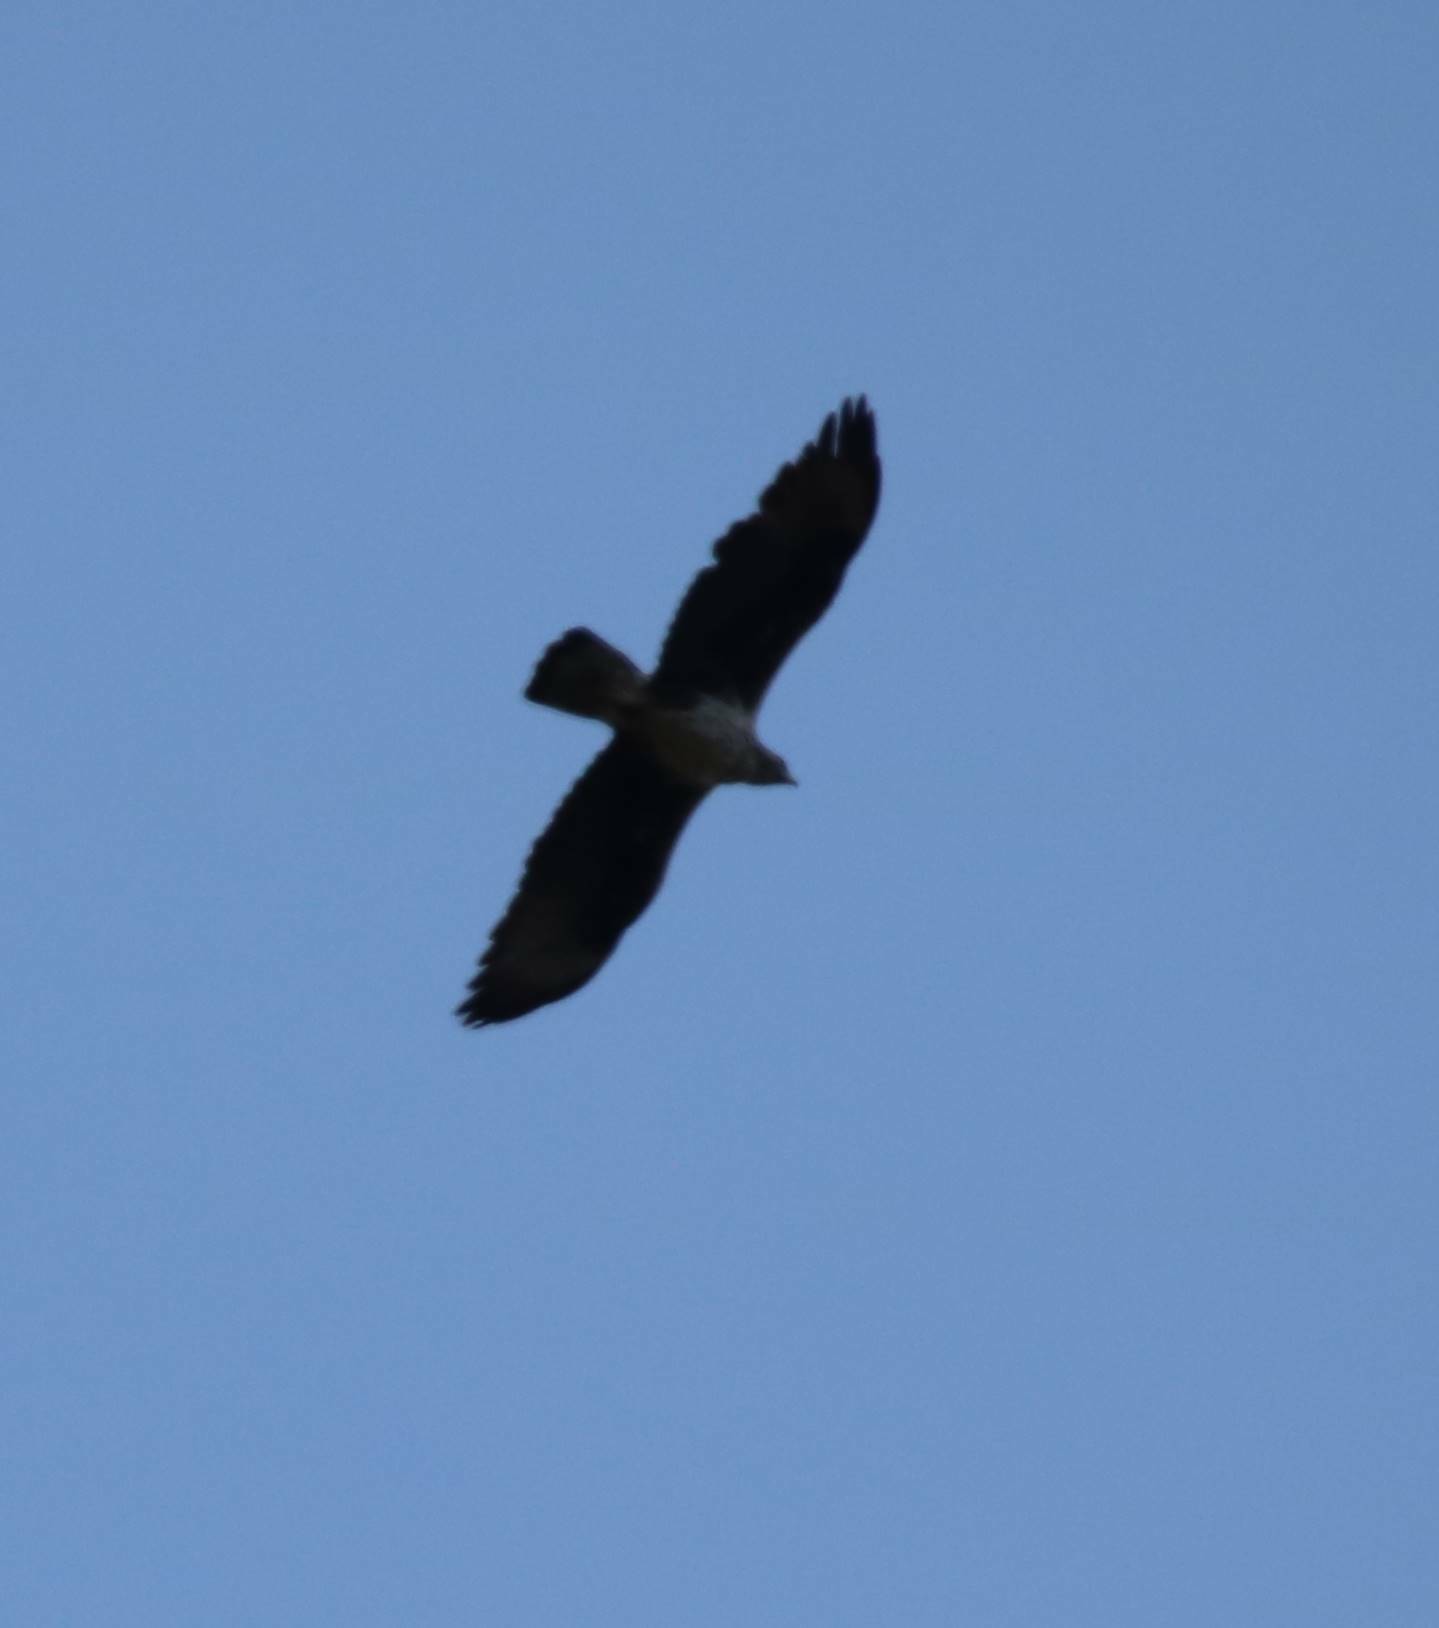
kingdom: Animalia
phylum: Chordata
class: Aves
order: Accipitriformes
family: Accipitridae
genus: Aquila
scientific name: Aquila chrysaetos
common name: Golden eagle
